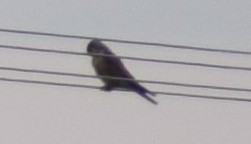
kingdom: Animalia
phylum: Chordata
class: Aves
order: Falconiformes
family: Falconidae
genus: Falco
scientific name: Falco tinnunculus
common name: Common kestrel
